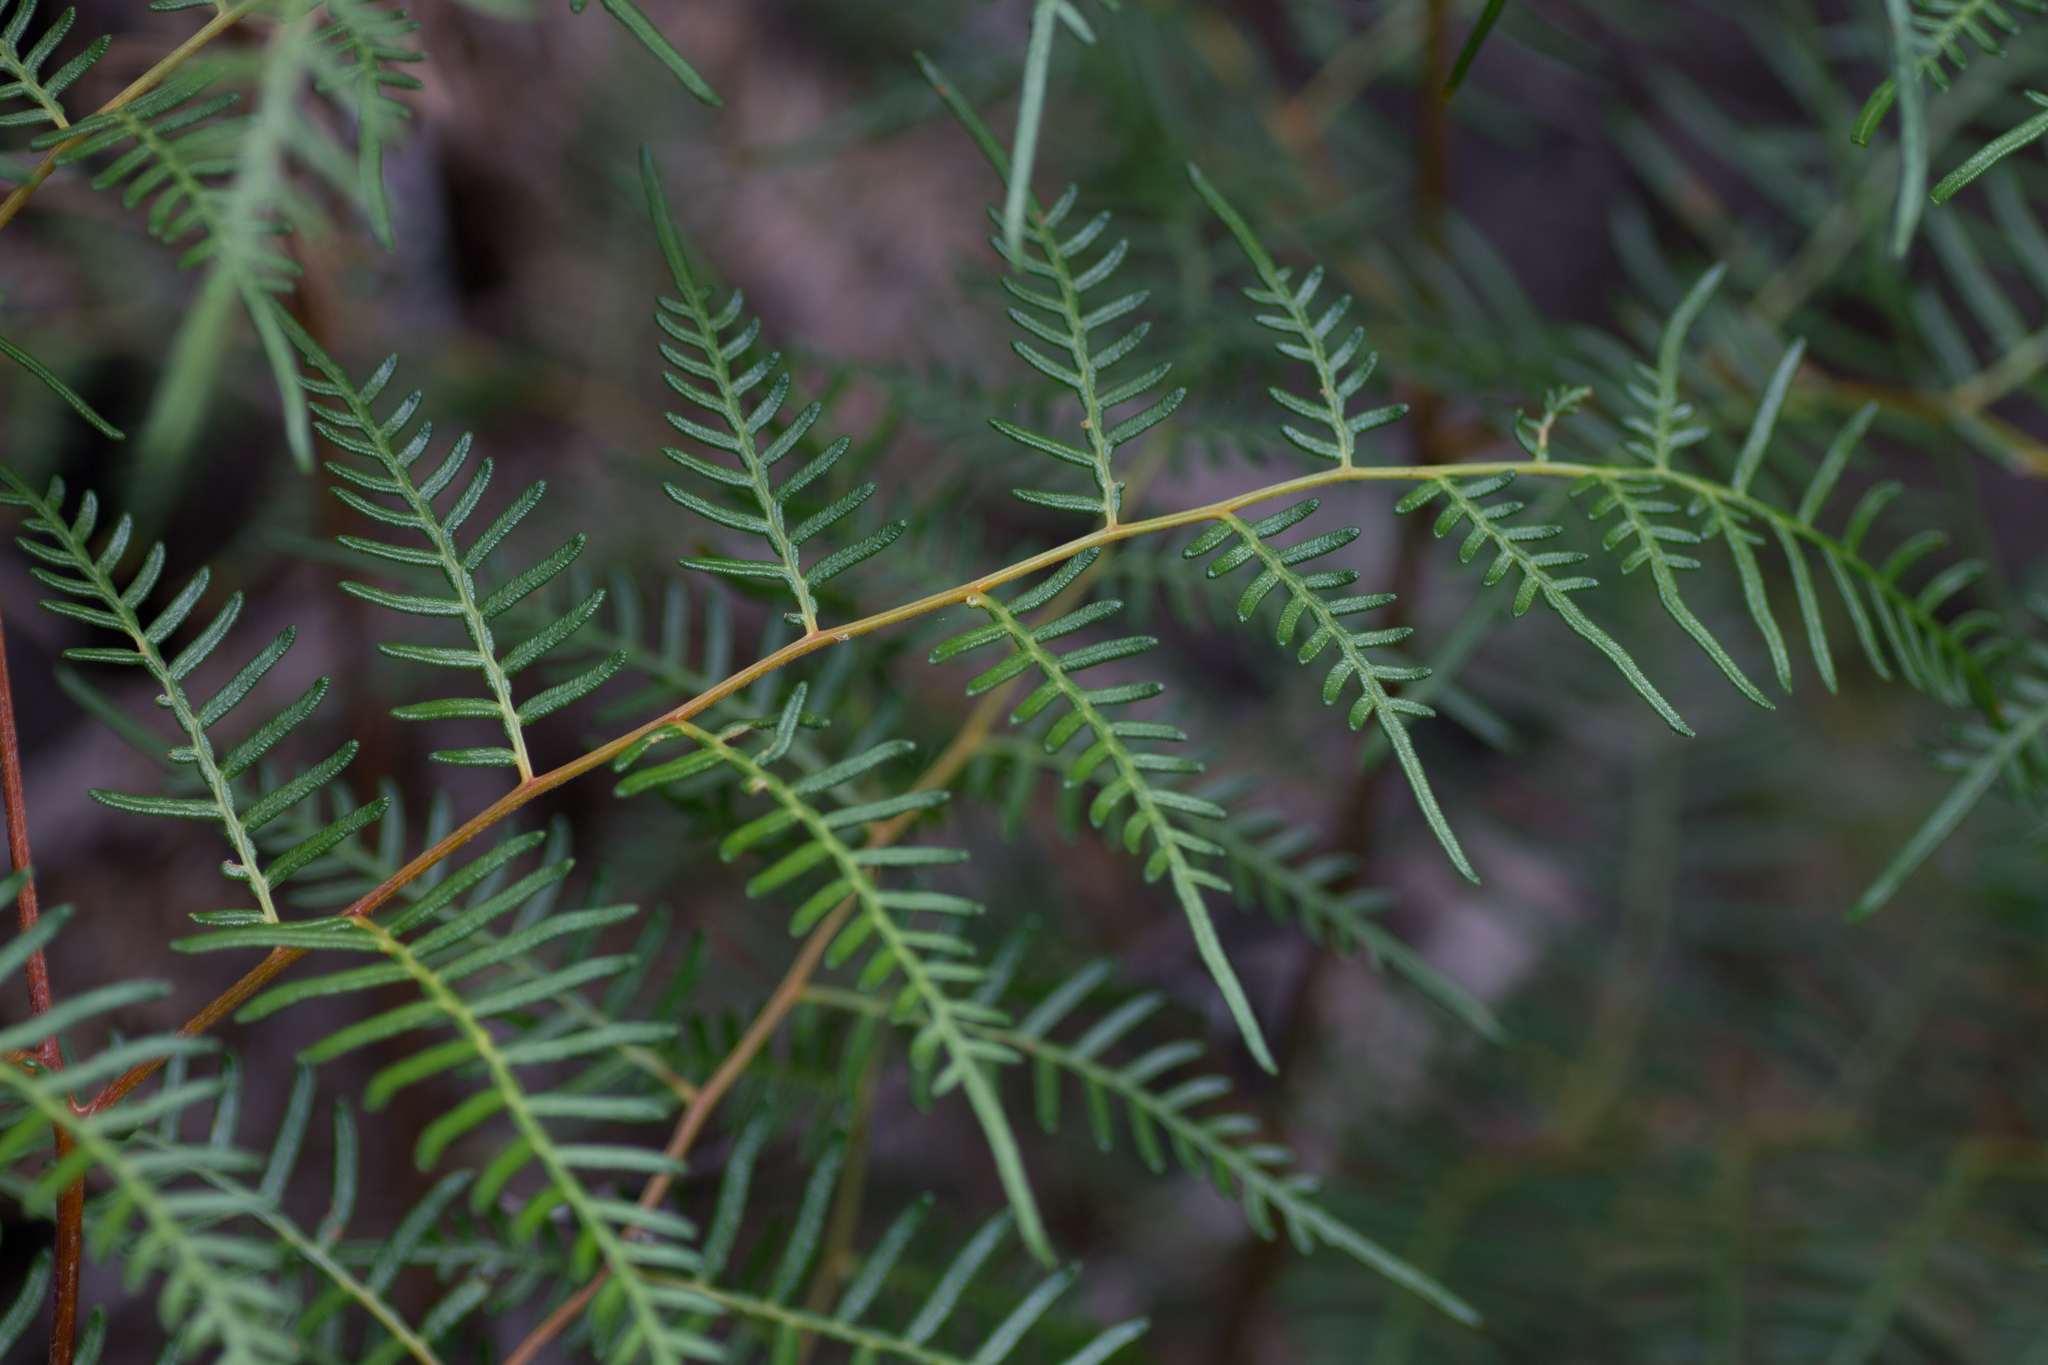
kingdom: Plantae
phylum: Tracheophyta
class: Polypodiopsida
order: Polypodiales
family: Dennstaedtiaceae
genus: Pteridium
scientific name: Pteridium esculentum
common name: Bracken fern
